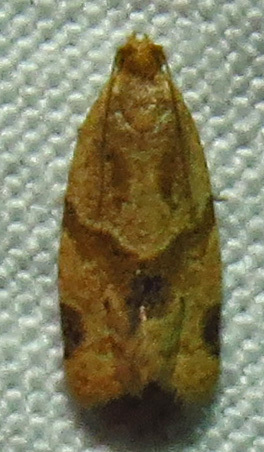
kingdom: Animalia
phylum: Arthropoda
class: Insecta
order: Lepidoptera
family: Tortricidae
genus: Clepsis
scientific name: Clepsis peritana
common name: Garden tortrix
